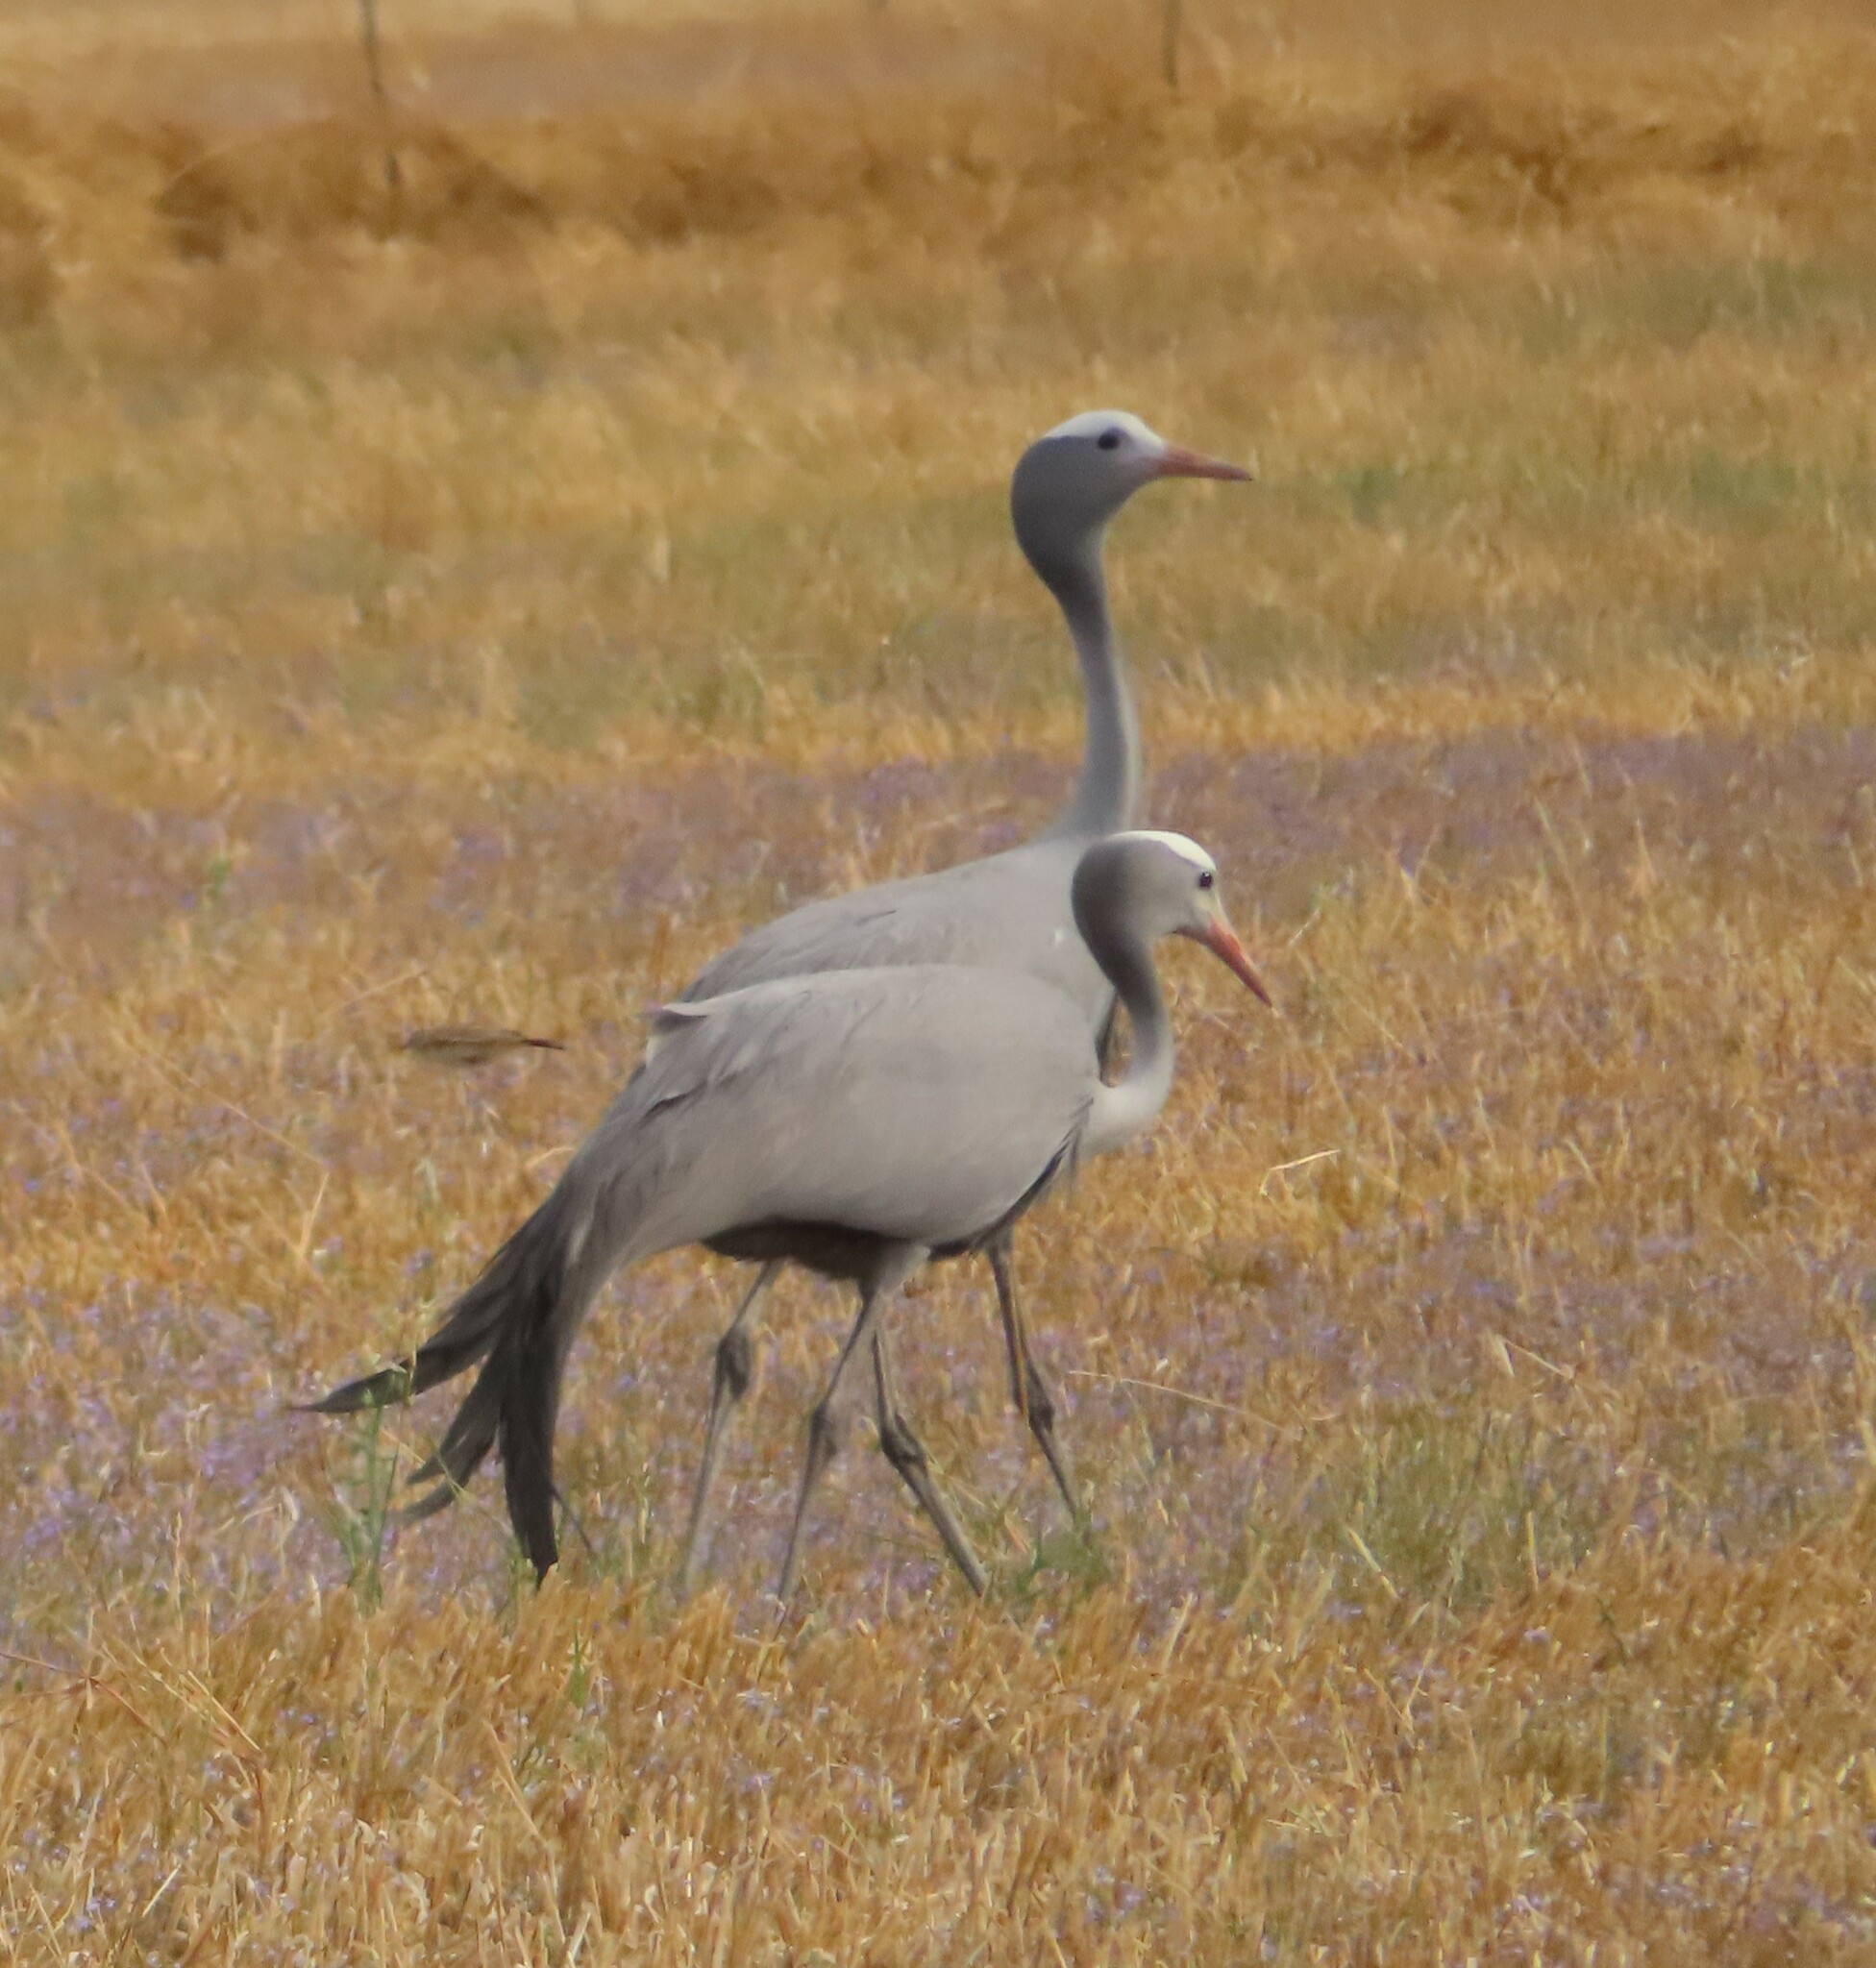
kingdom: Animalia
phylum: Chordata
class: Aves
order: Gruiformes
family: Gruidae
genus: Anthropoides
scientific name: Anthropoides paradiseus
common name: Blue crane
